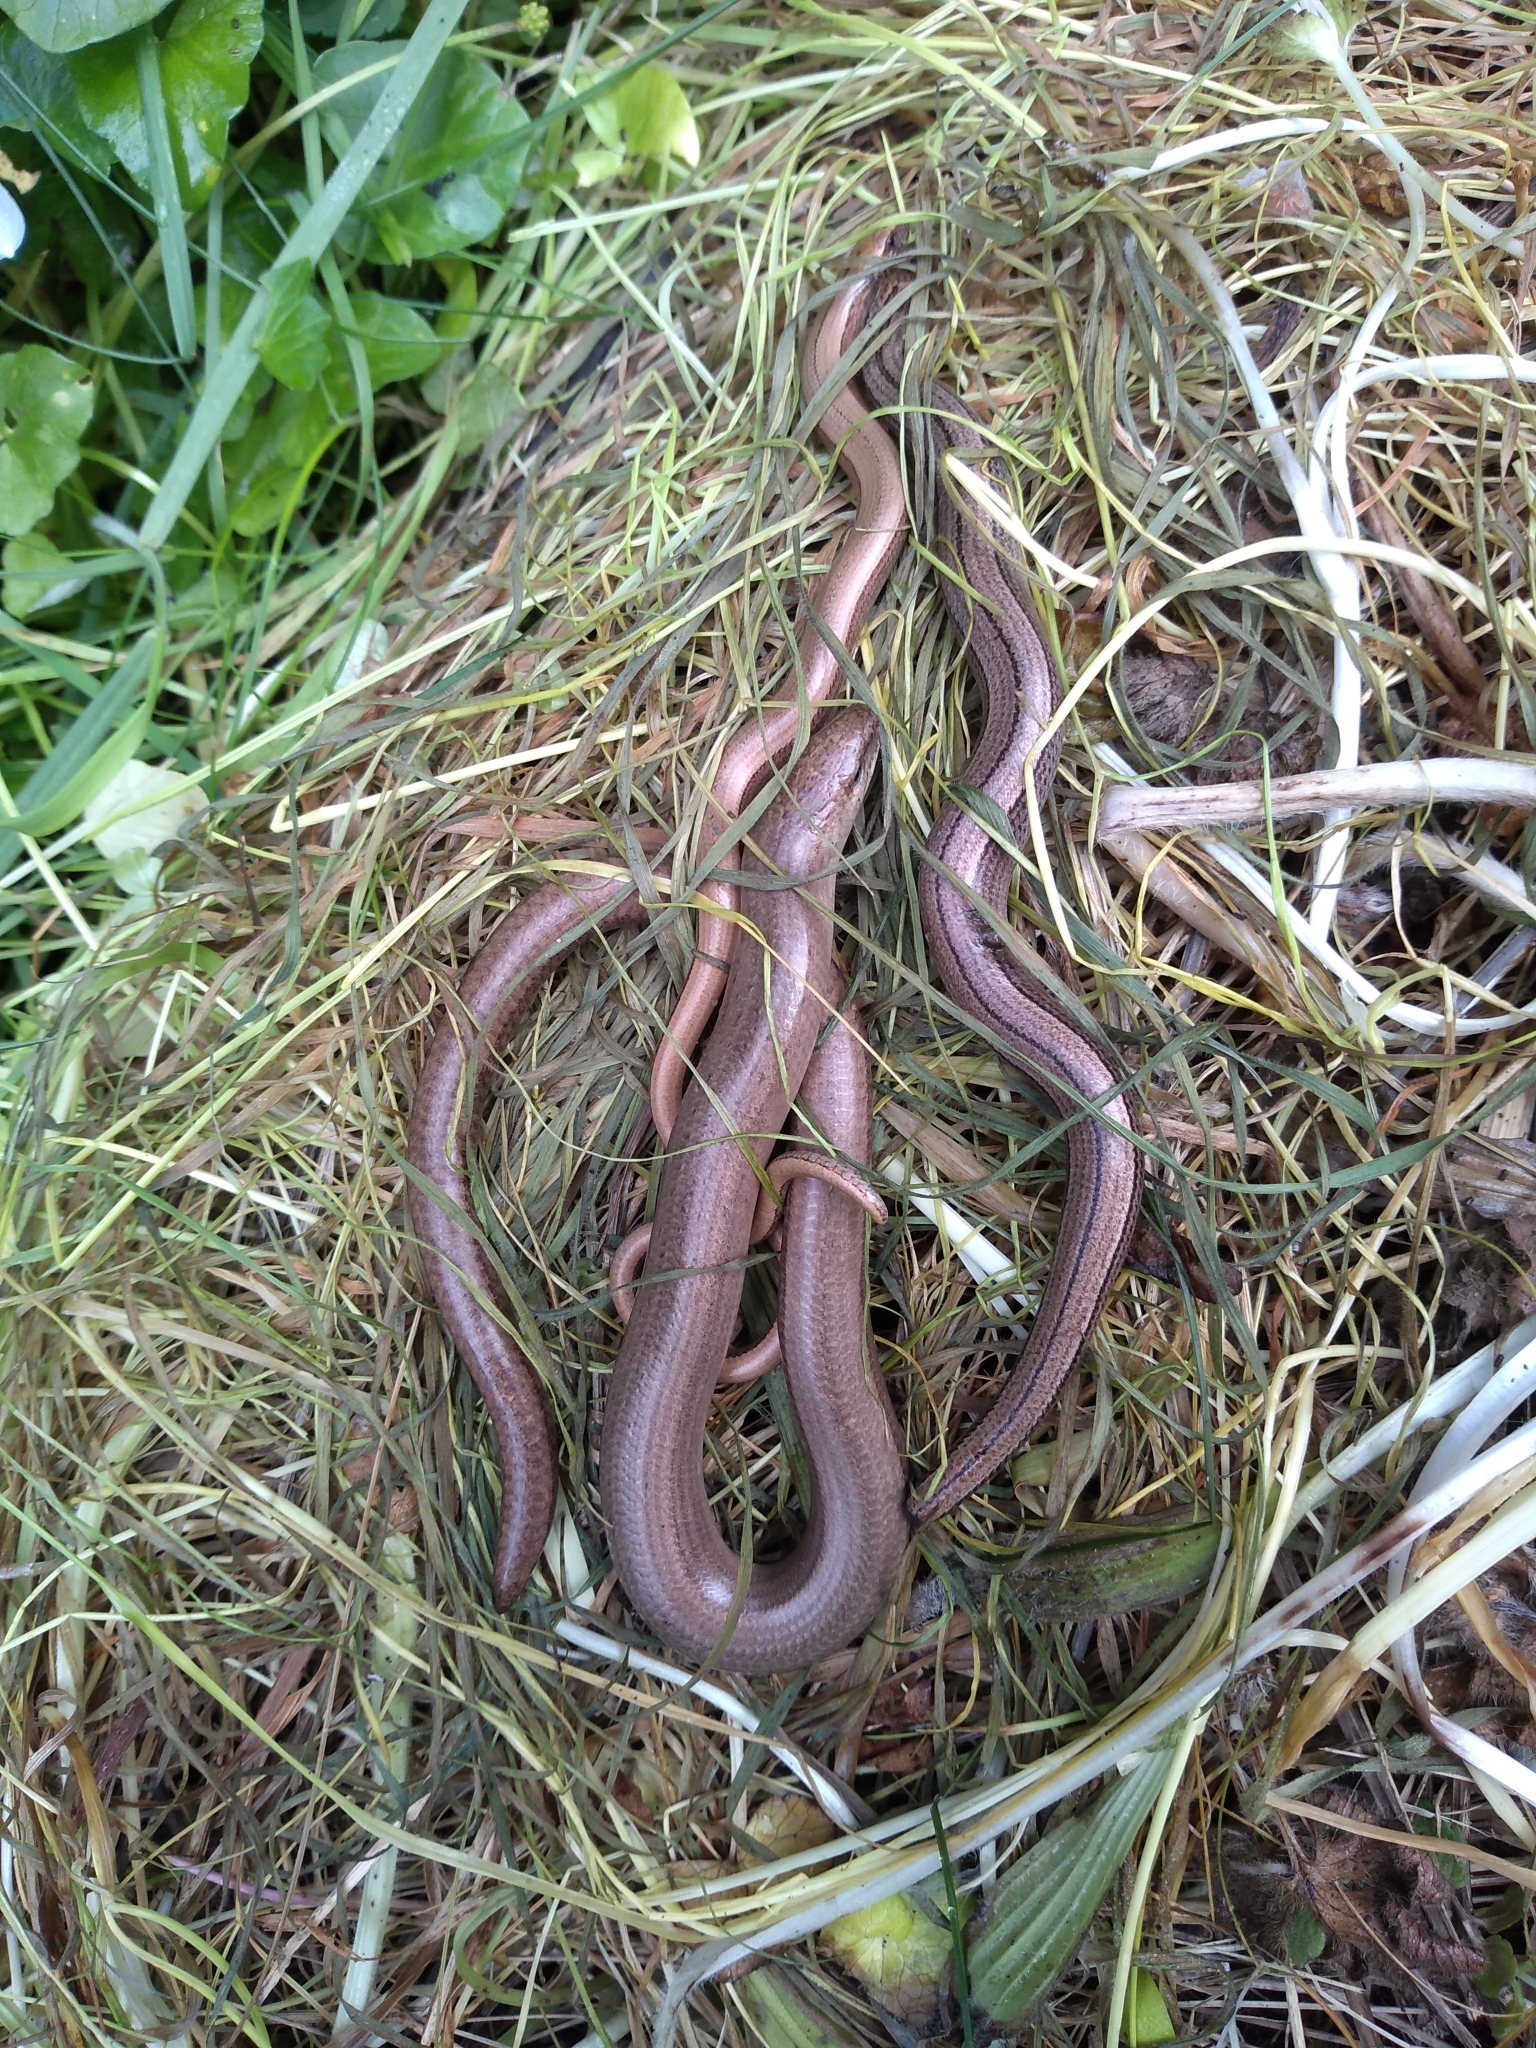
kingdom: Animalia
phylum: Chordata
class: Squamata
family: Anguidae
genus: Anguis
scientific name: Anguis fragilis
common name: Slow worm
